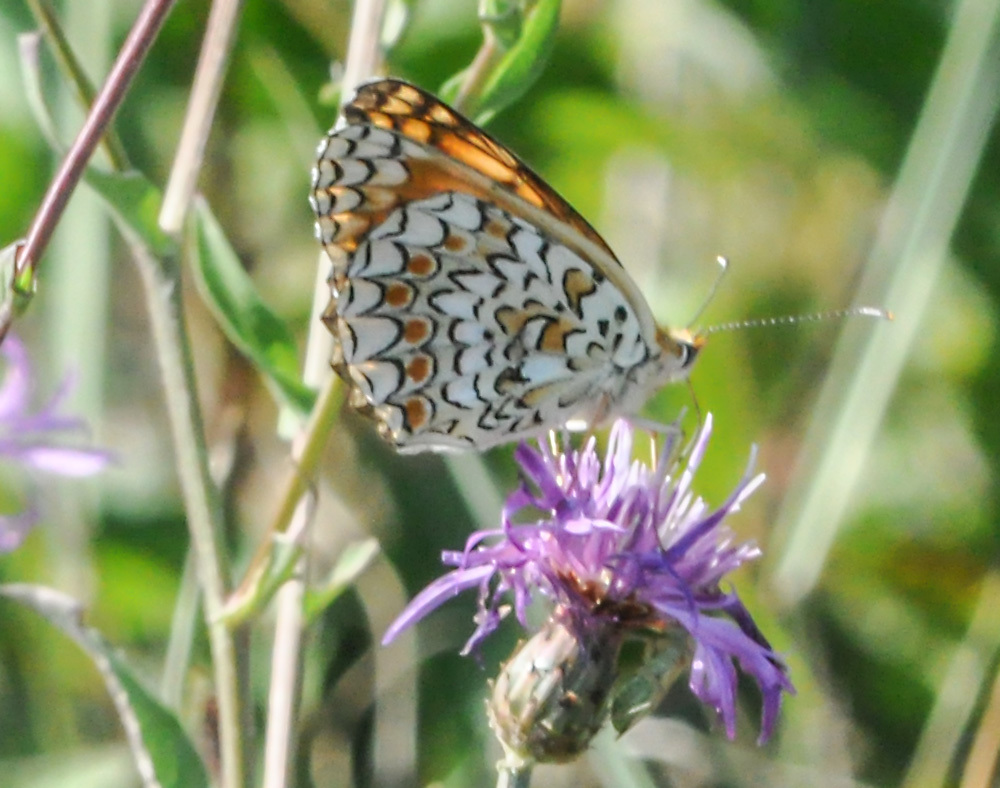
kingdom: Animalia
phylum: Arthropoda
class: Insecta
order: Lepidoptera
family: Nymphalidae
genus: Melitaea
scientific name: Melitaea phoebe
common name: Knapweed fritillary
